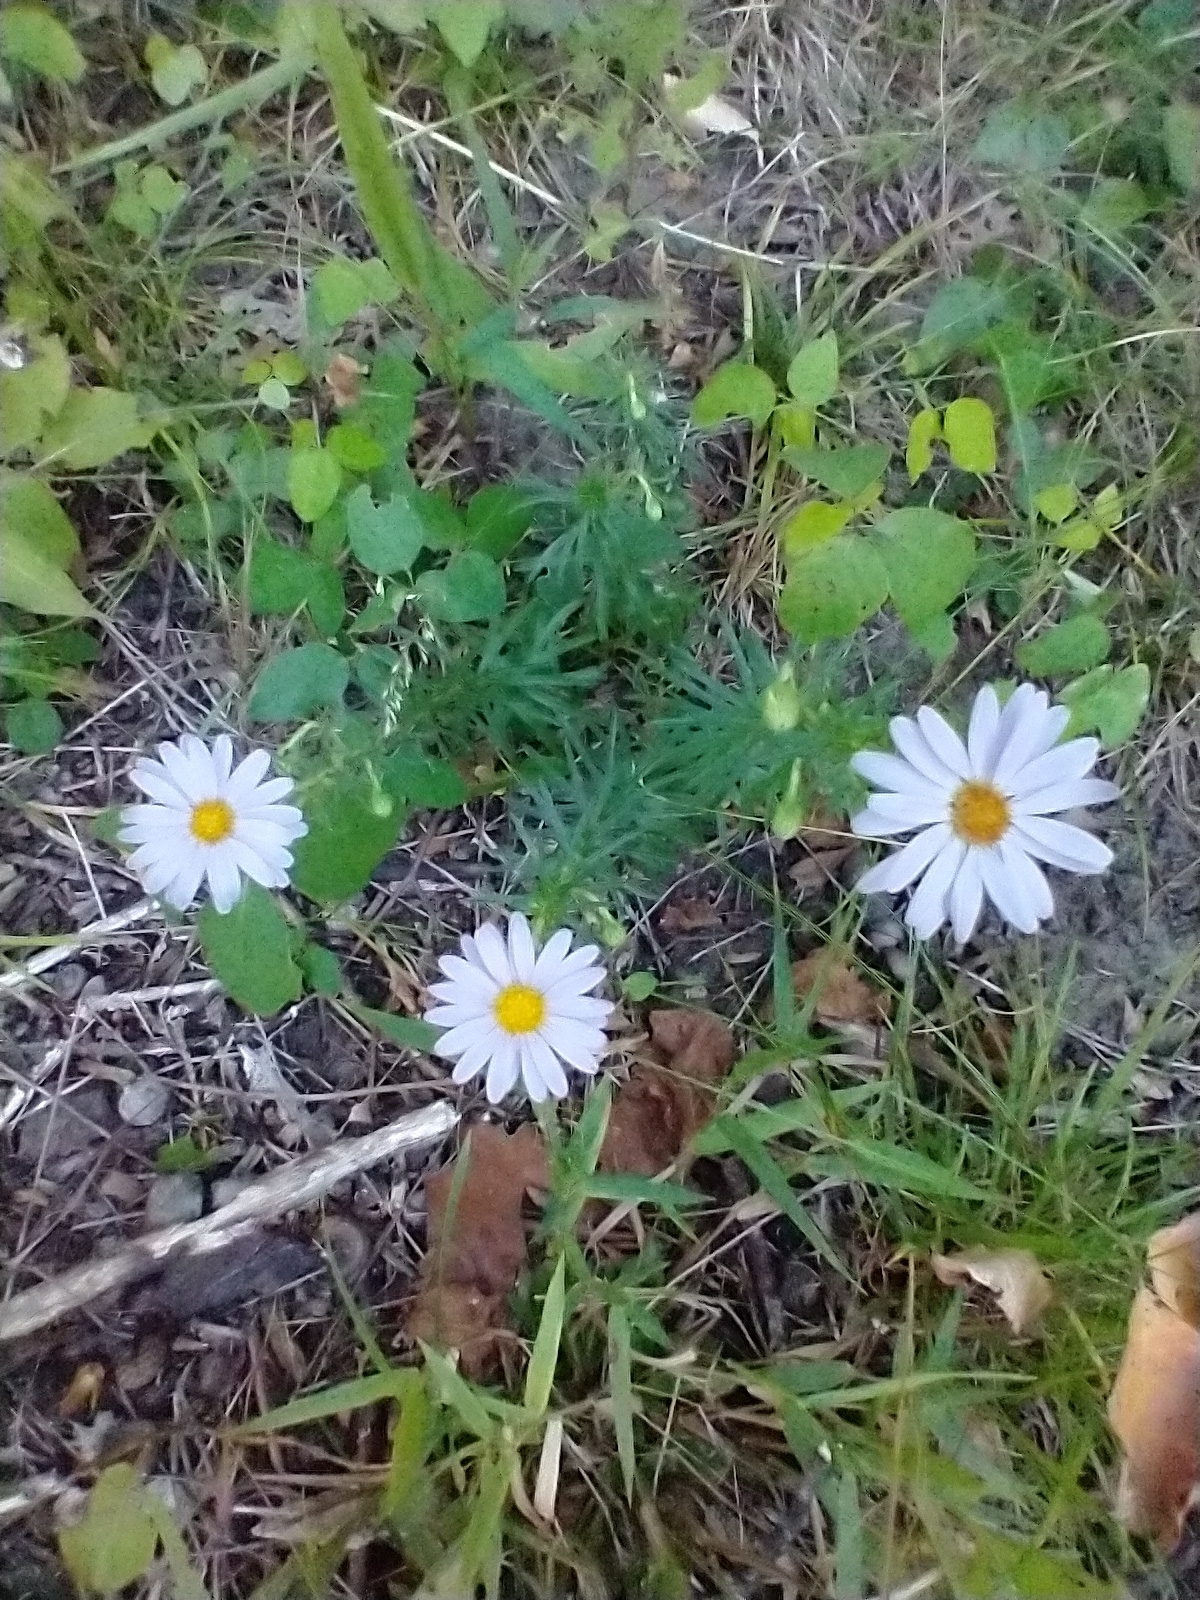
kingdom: Plantae
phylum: Tracheophyta
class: Magnoliopsida
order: Asterales
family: Asteraceae
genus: Ionactis
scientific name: Ionactis linariifolia
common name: Flax-leaf aster
